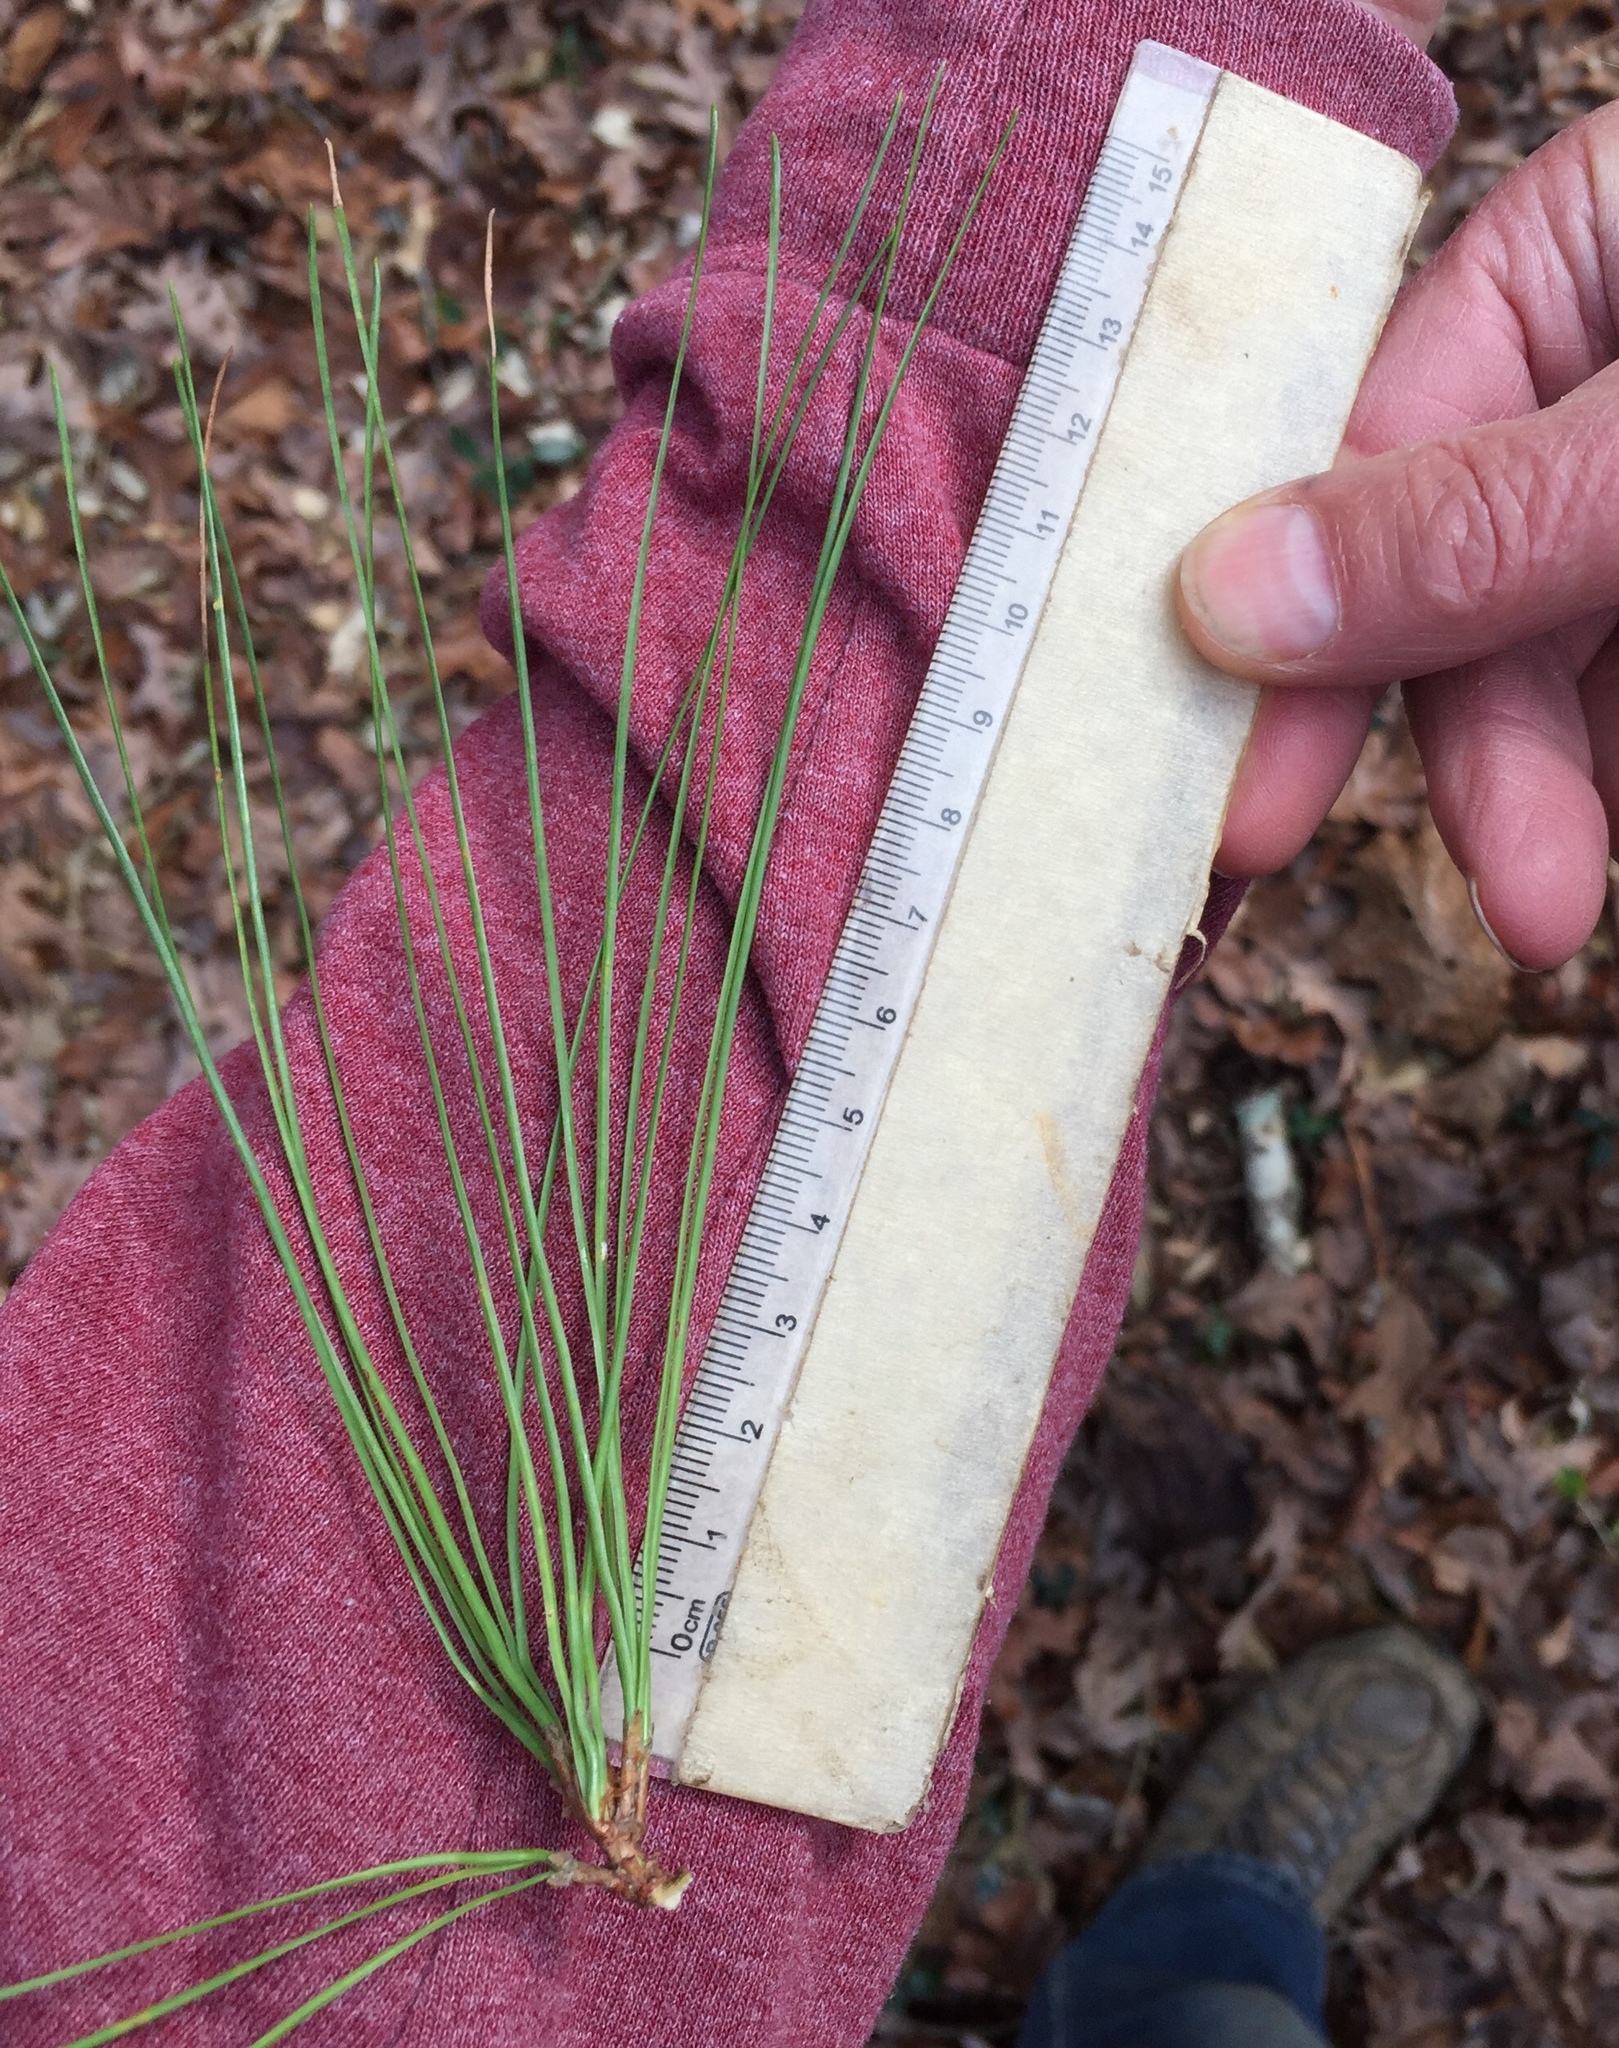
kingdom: Plantae
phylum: Tracheophyta
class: Pinopsida
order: Pinales
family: Pinaceae
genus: Pinus
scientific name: Pinus taeda
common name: Loblolly pine
